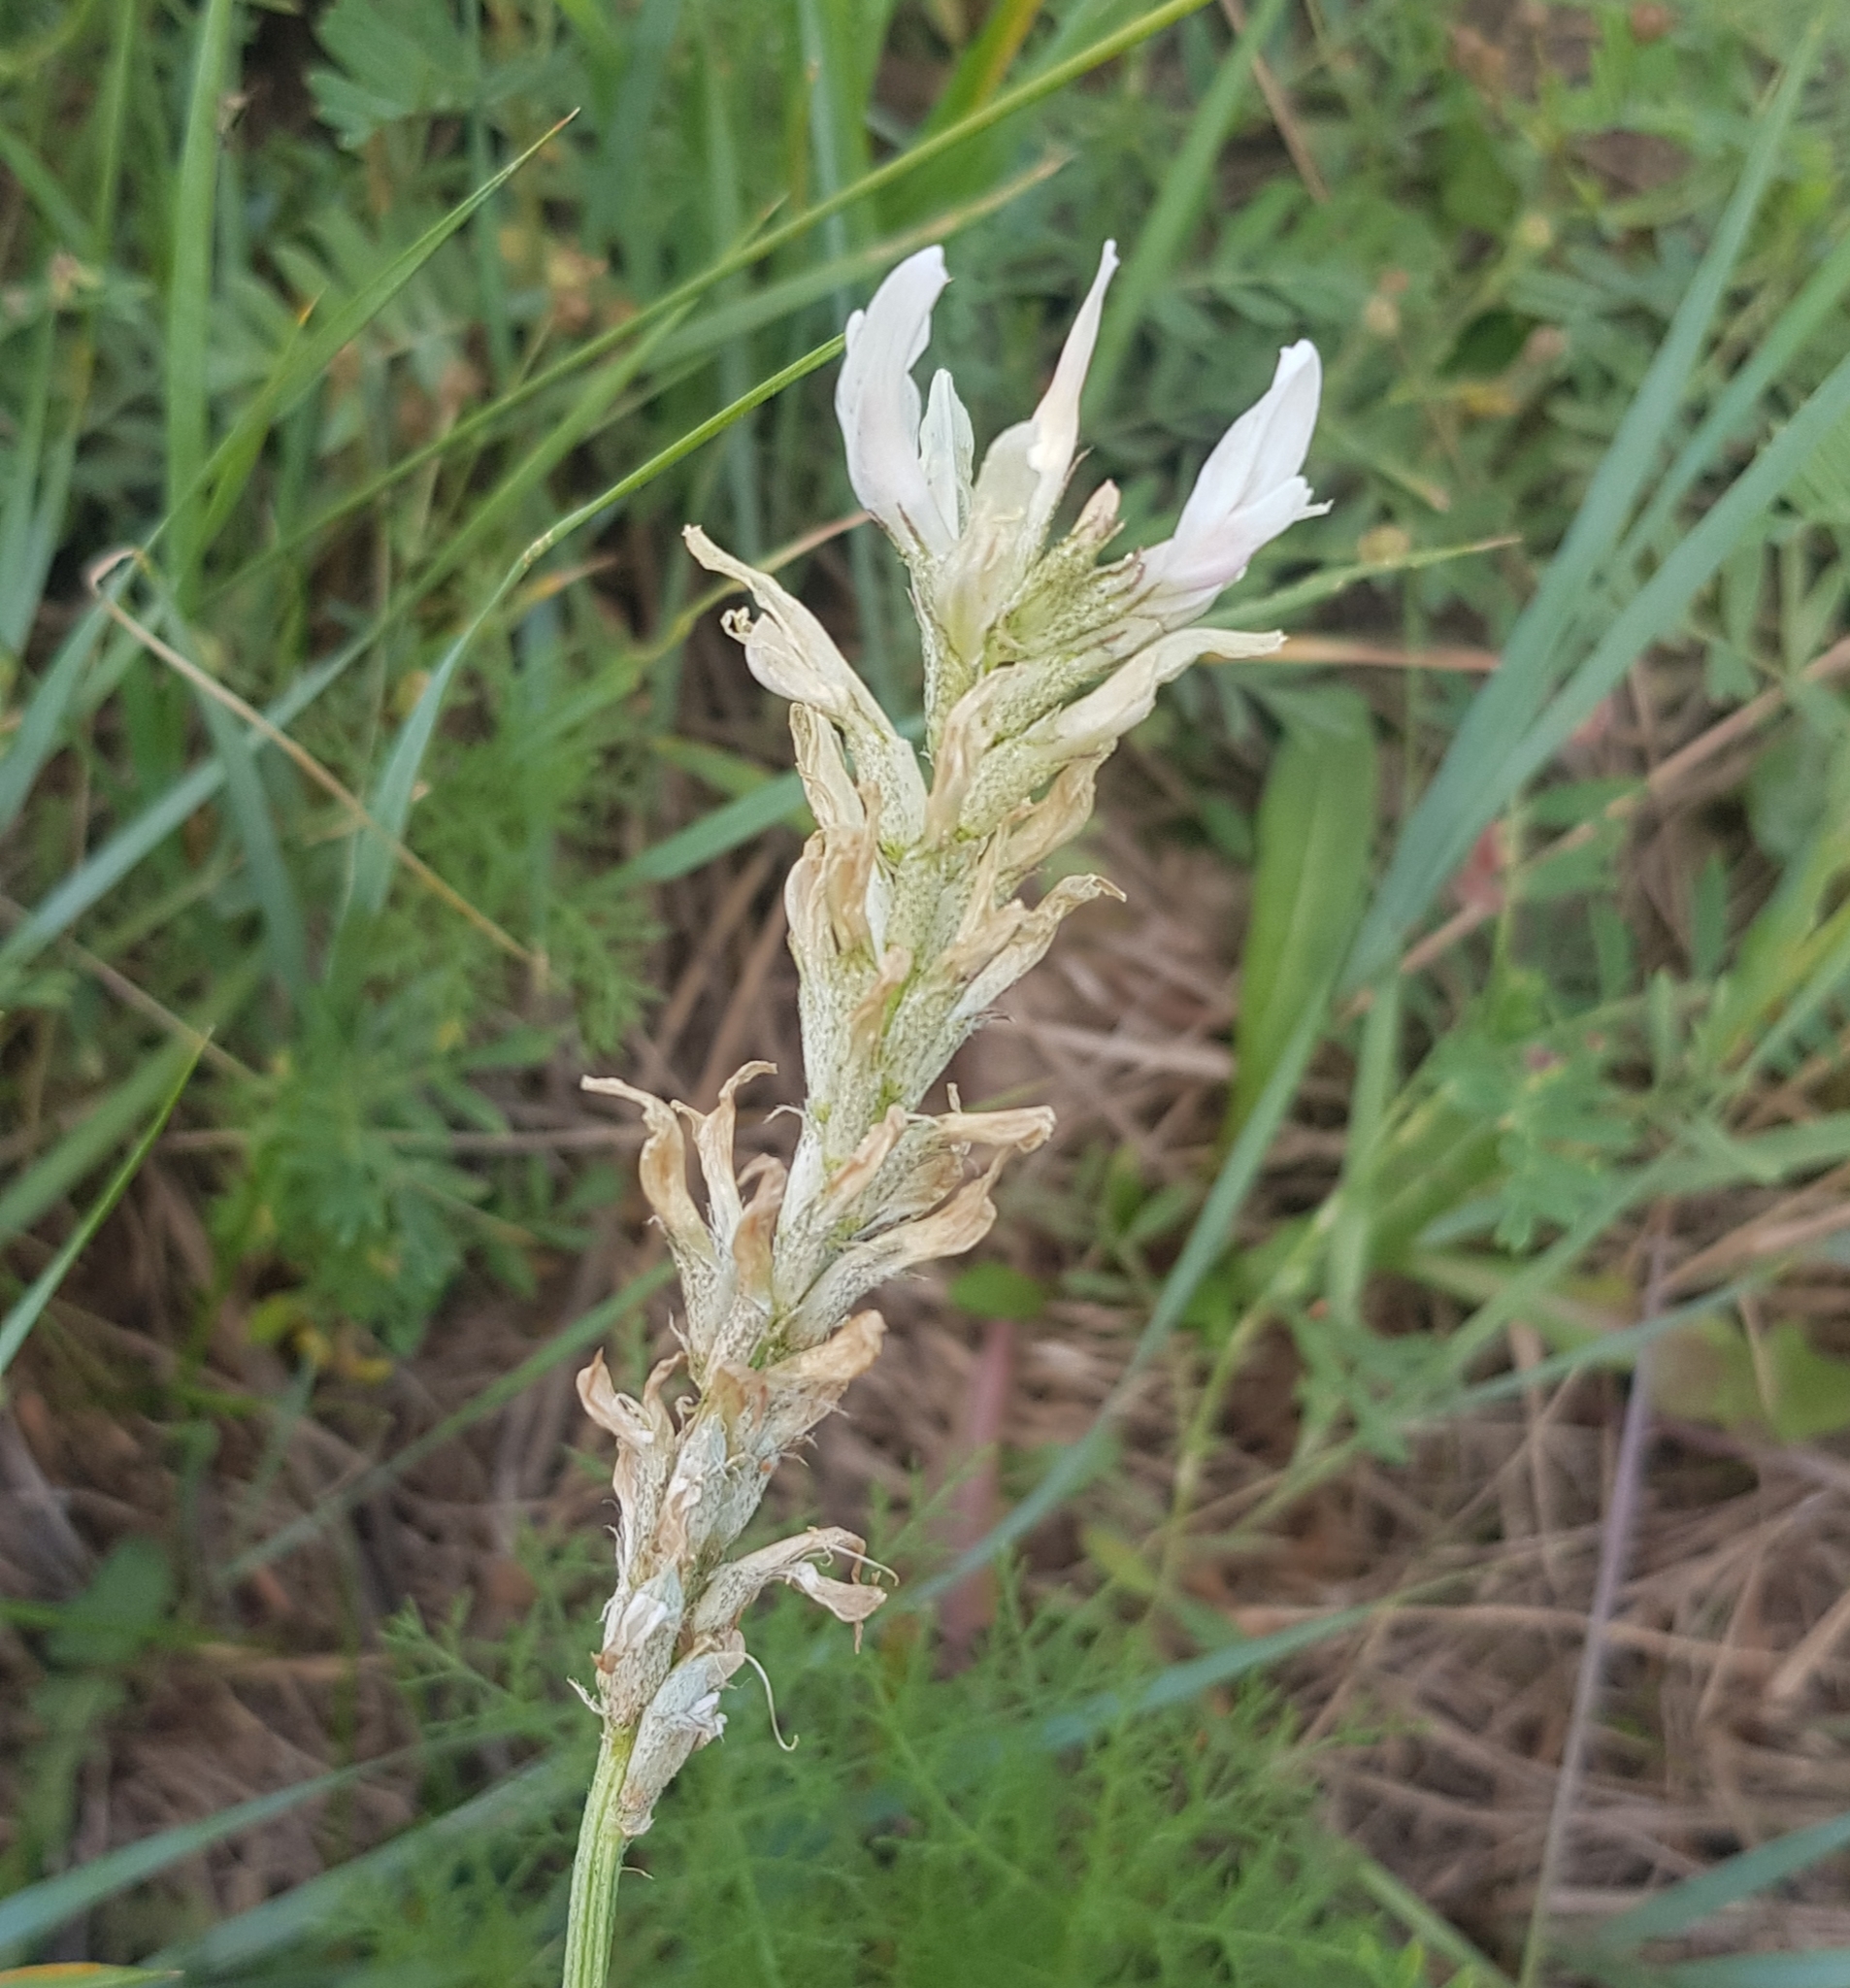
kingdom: Plantae
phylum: Tracheophyta
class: Magnoliopsida
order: Fabales
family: Fabaceae
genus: Astragalus
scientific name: Astragalus laxmannii
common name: Laxmann's milk-vetch
